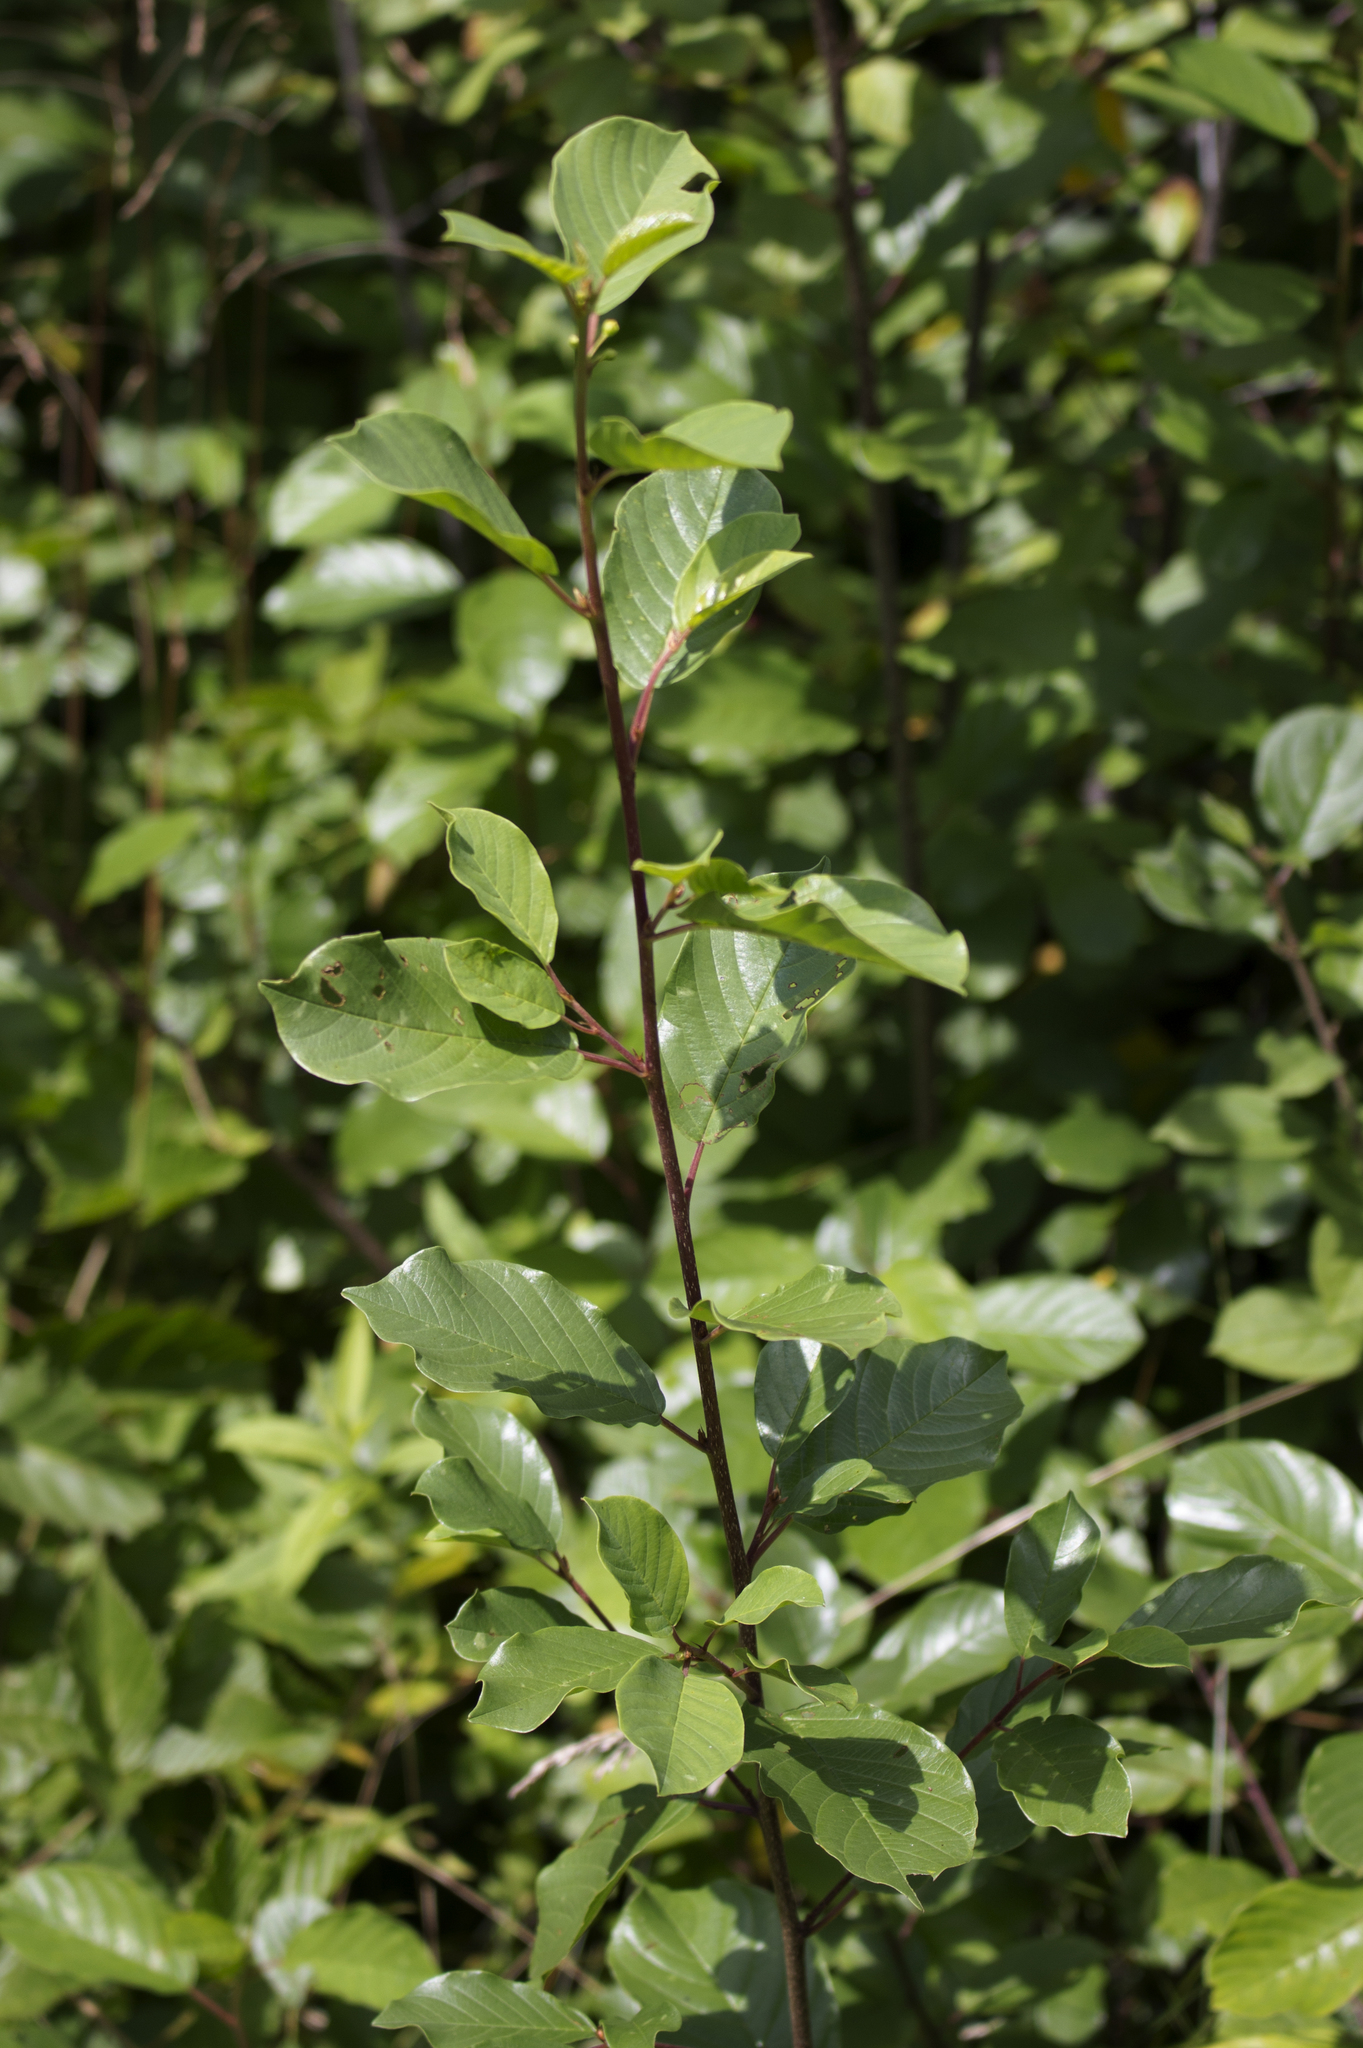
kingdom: Plantae
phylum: Tracheophyta
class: Magnoliopsida
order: Rosales
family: Rhamnaceae
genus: Frangula
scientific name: Frangula alnus
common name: Alder buckthorn
